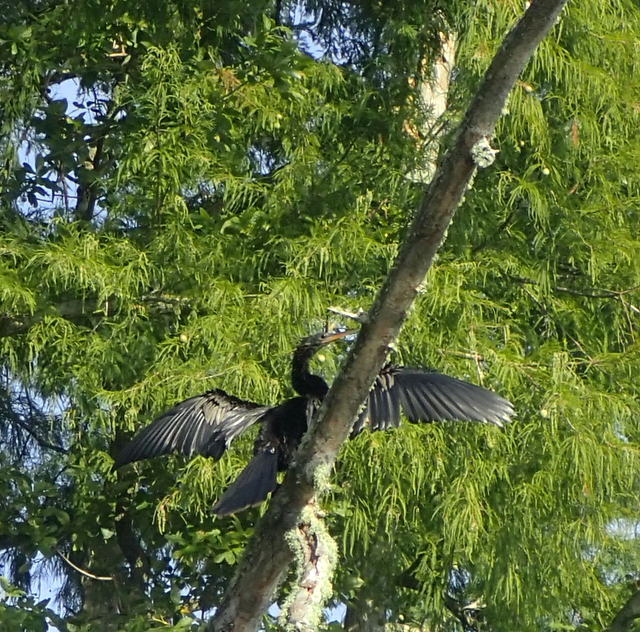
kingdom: Animalia
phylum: Chordata
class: Aves
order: Suliformes
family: Anhingidae
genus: Anhinga
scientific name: Anhinga anhinga
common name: Anhinga
